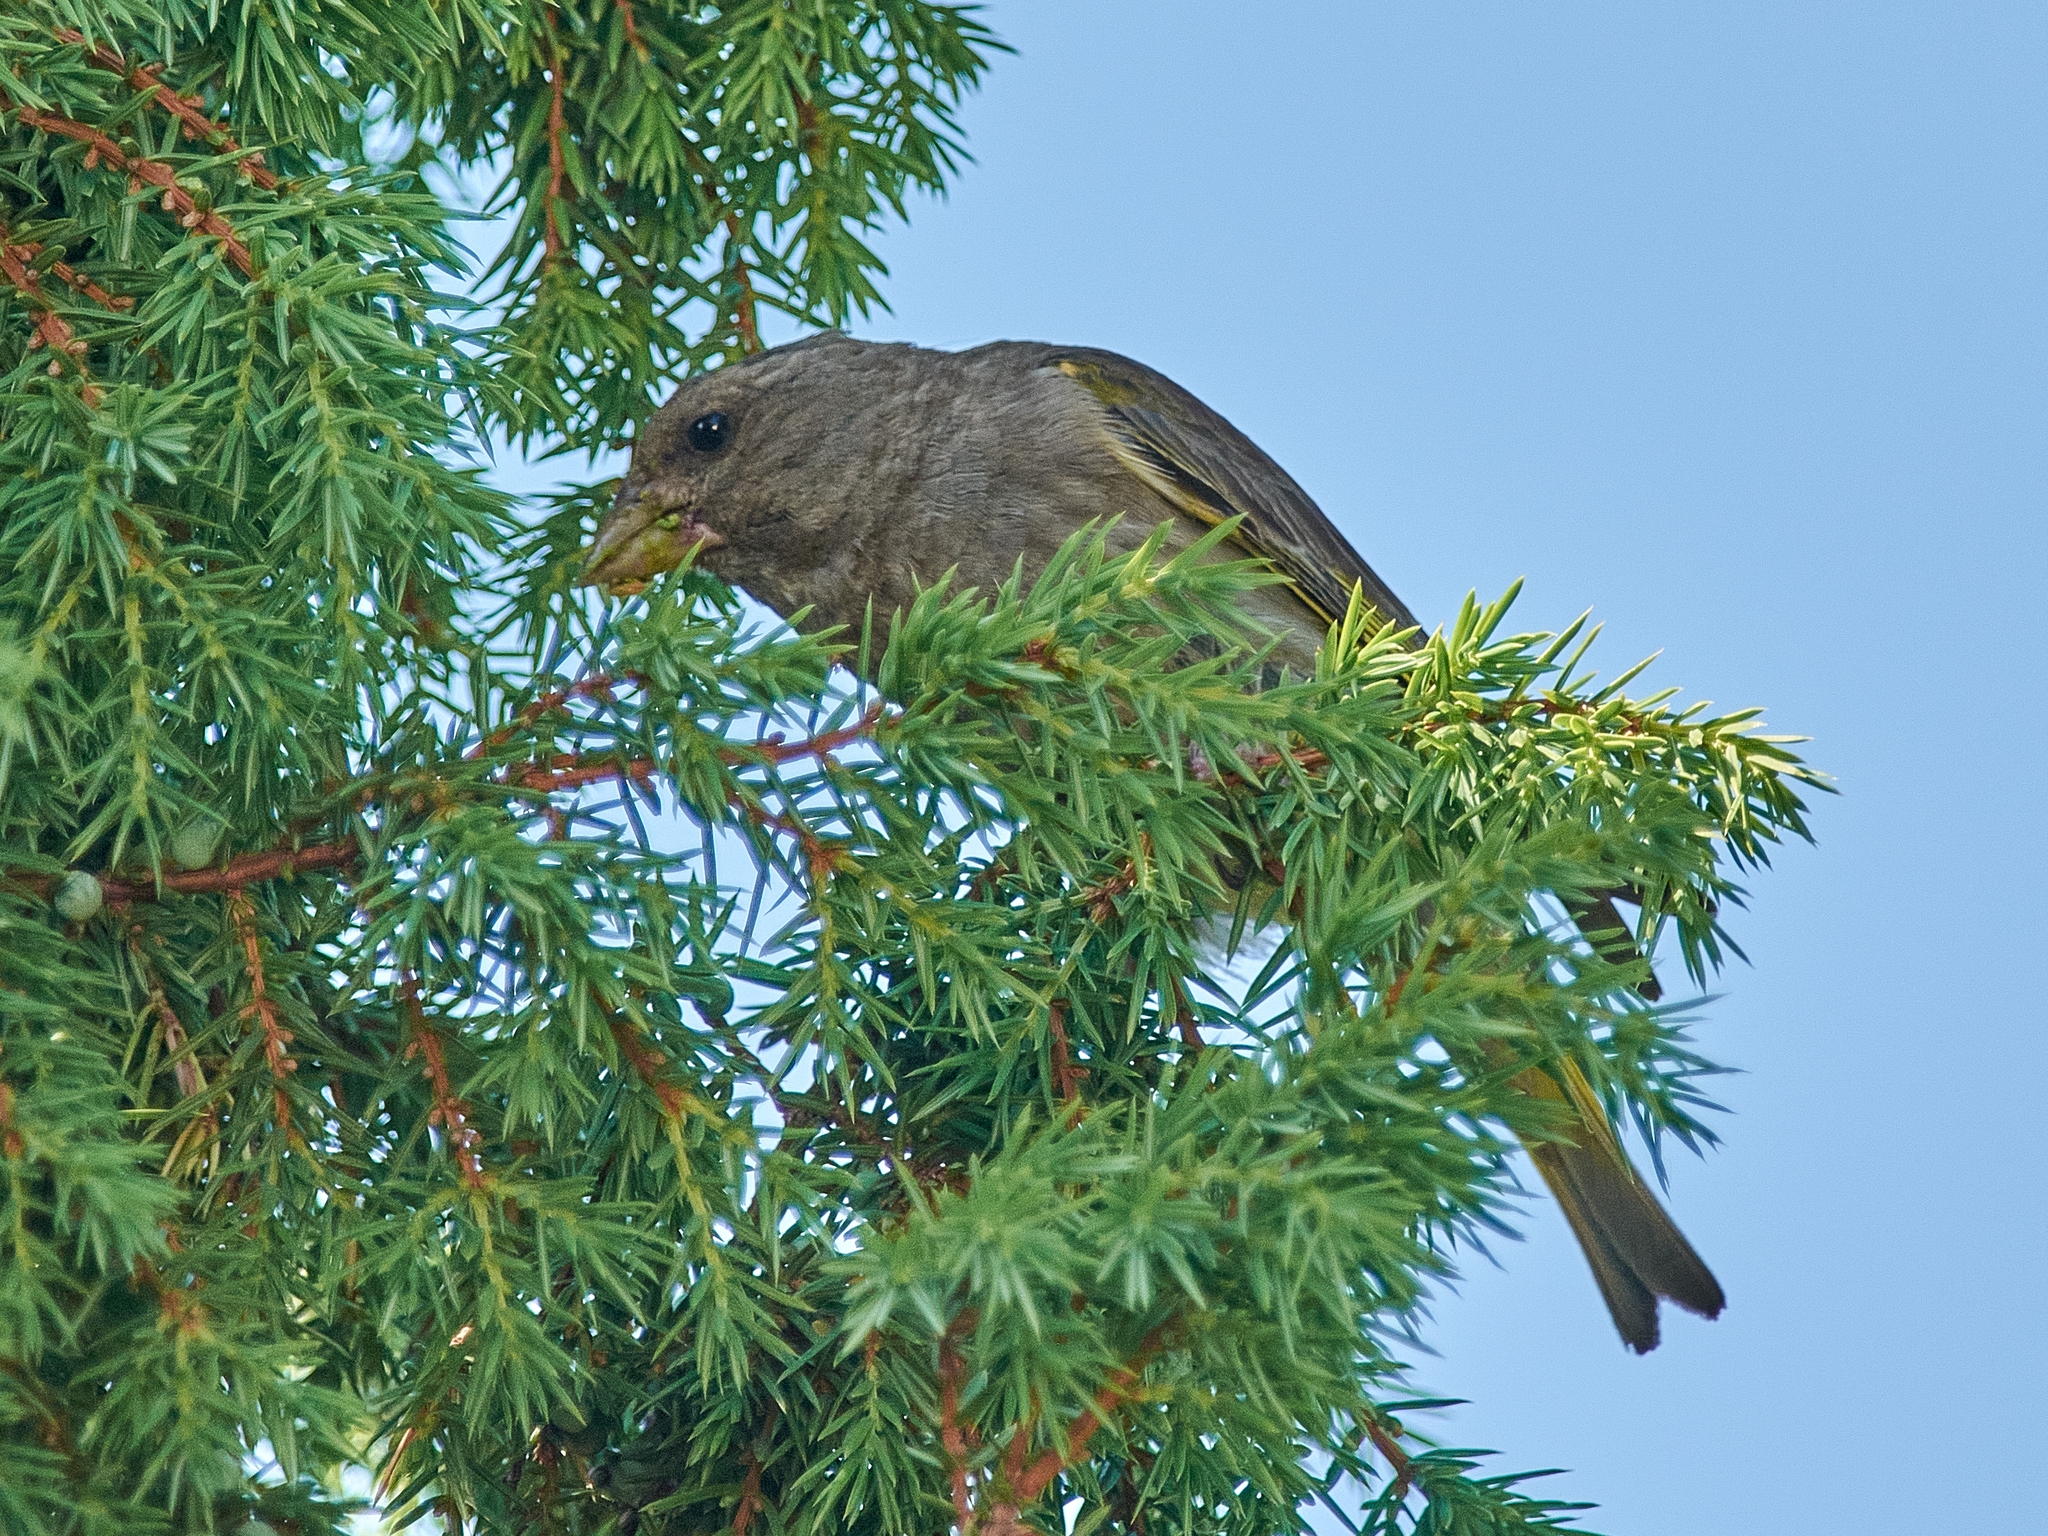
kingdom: Plantae
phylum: Tracheophyta
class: Liliopsida
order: Poales
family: Poaceae
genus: Chloris
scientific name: Chloris chloris
